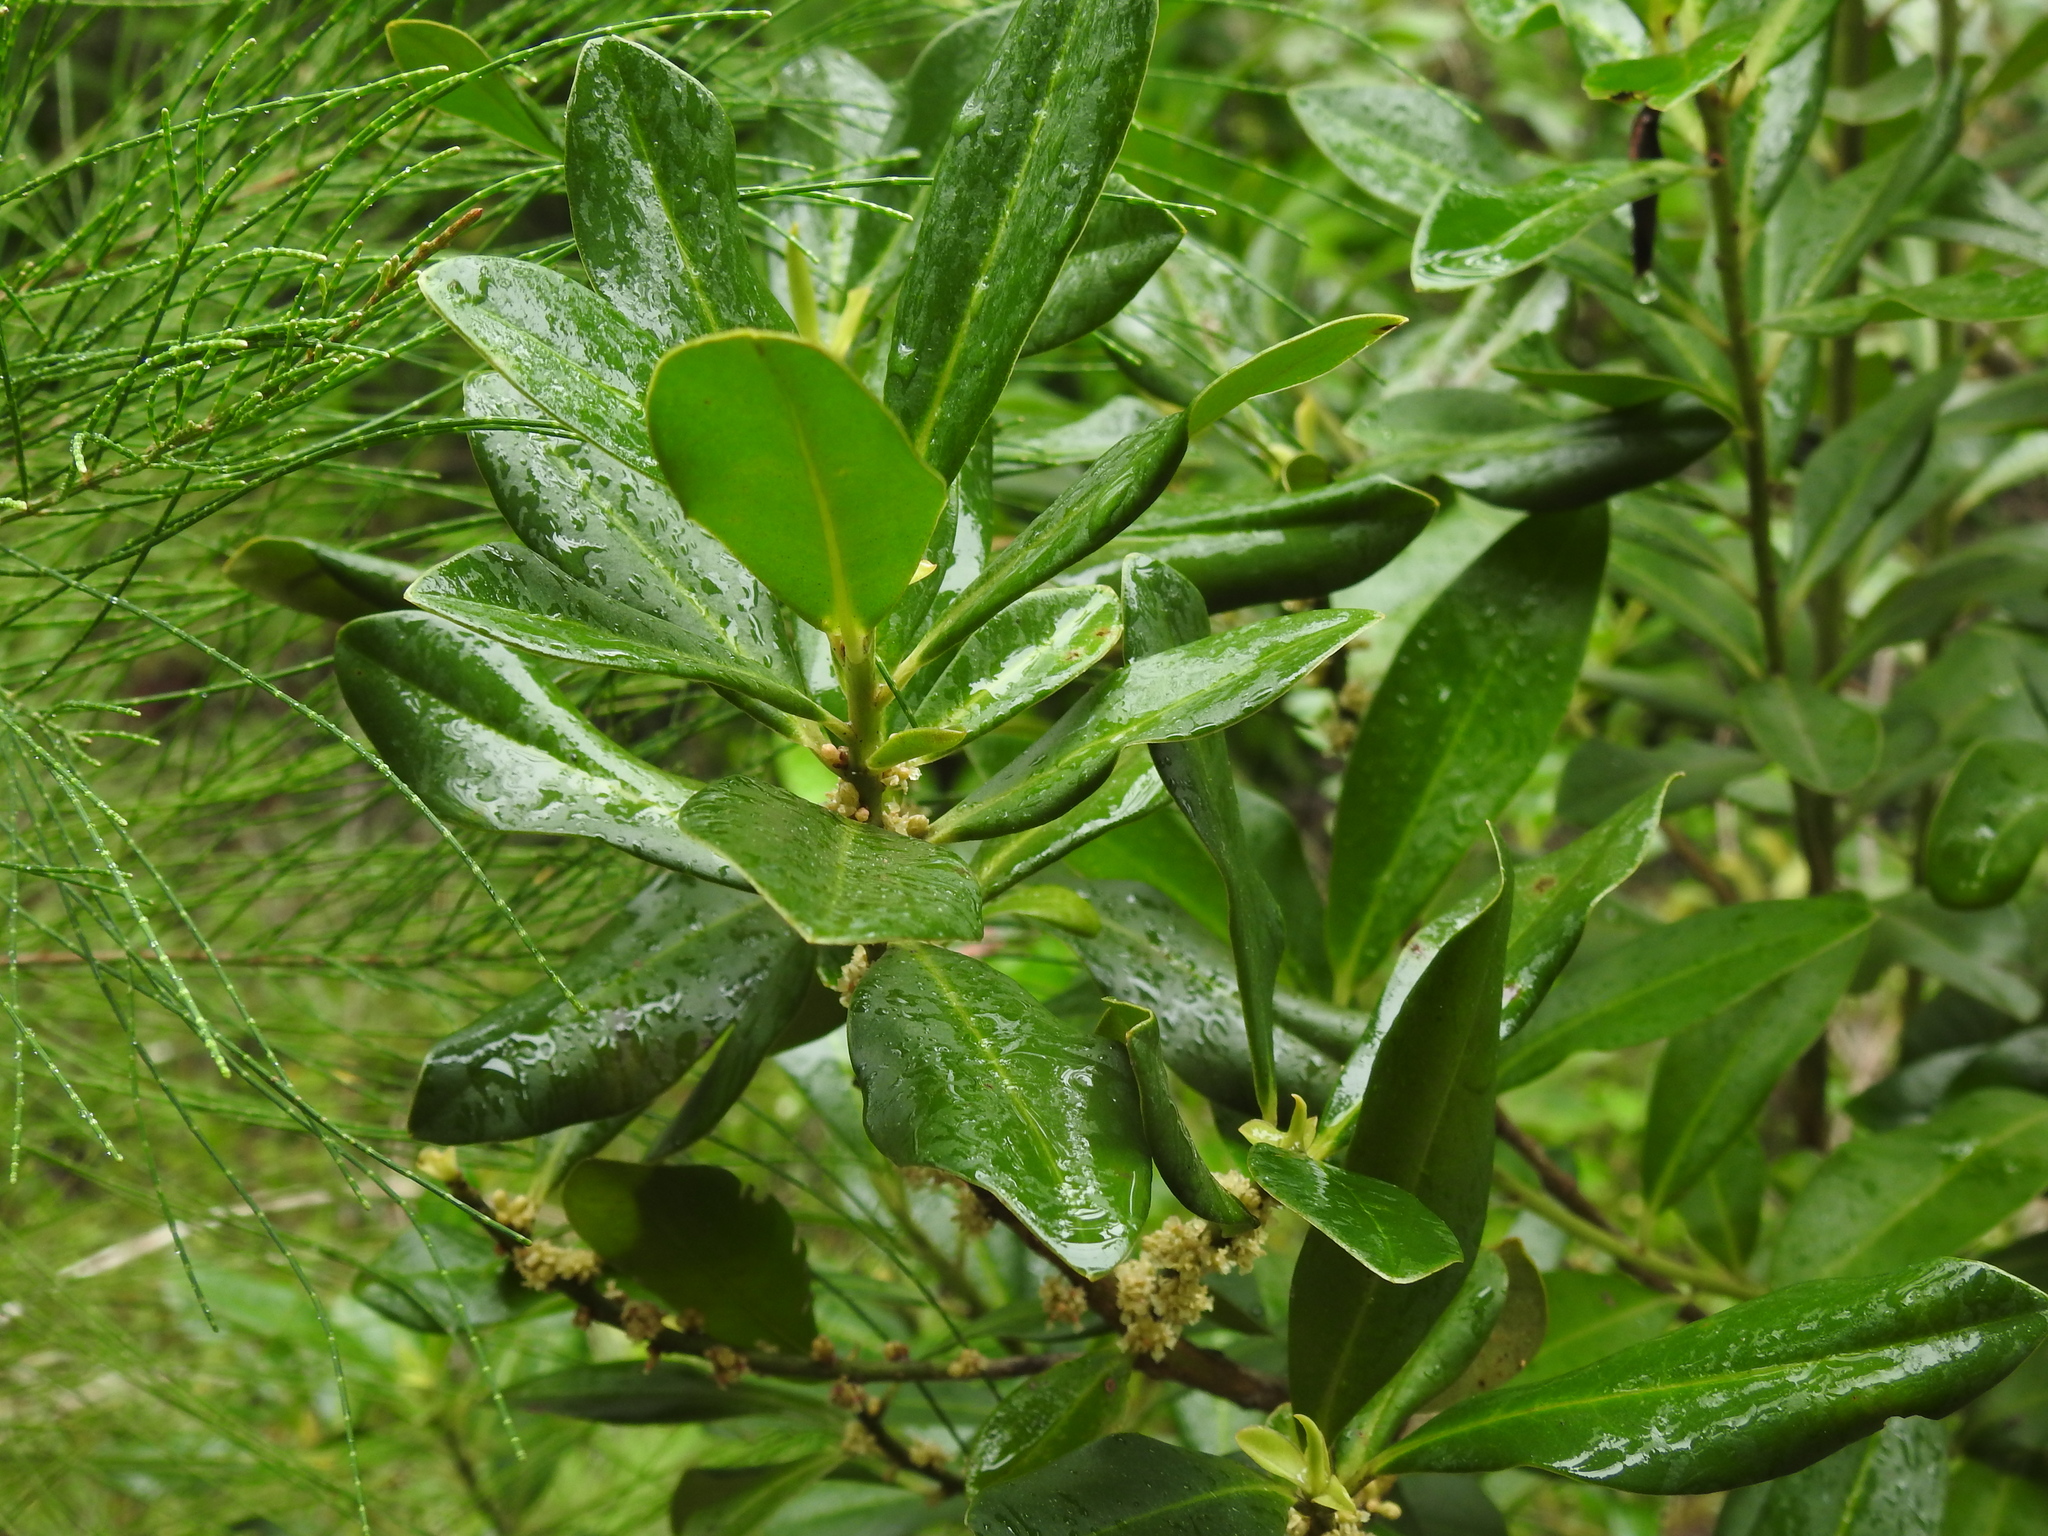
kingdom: Plantae
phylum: Tracheophyta
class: Magnoliopsida
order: Ericales
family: Primulaceae
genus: Myrsine
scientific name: Myrsine floridana
